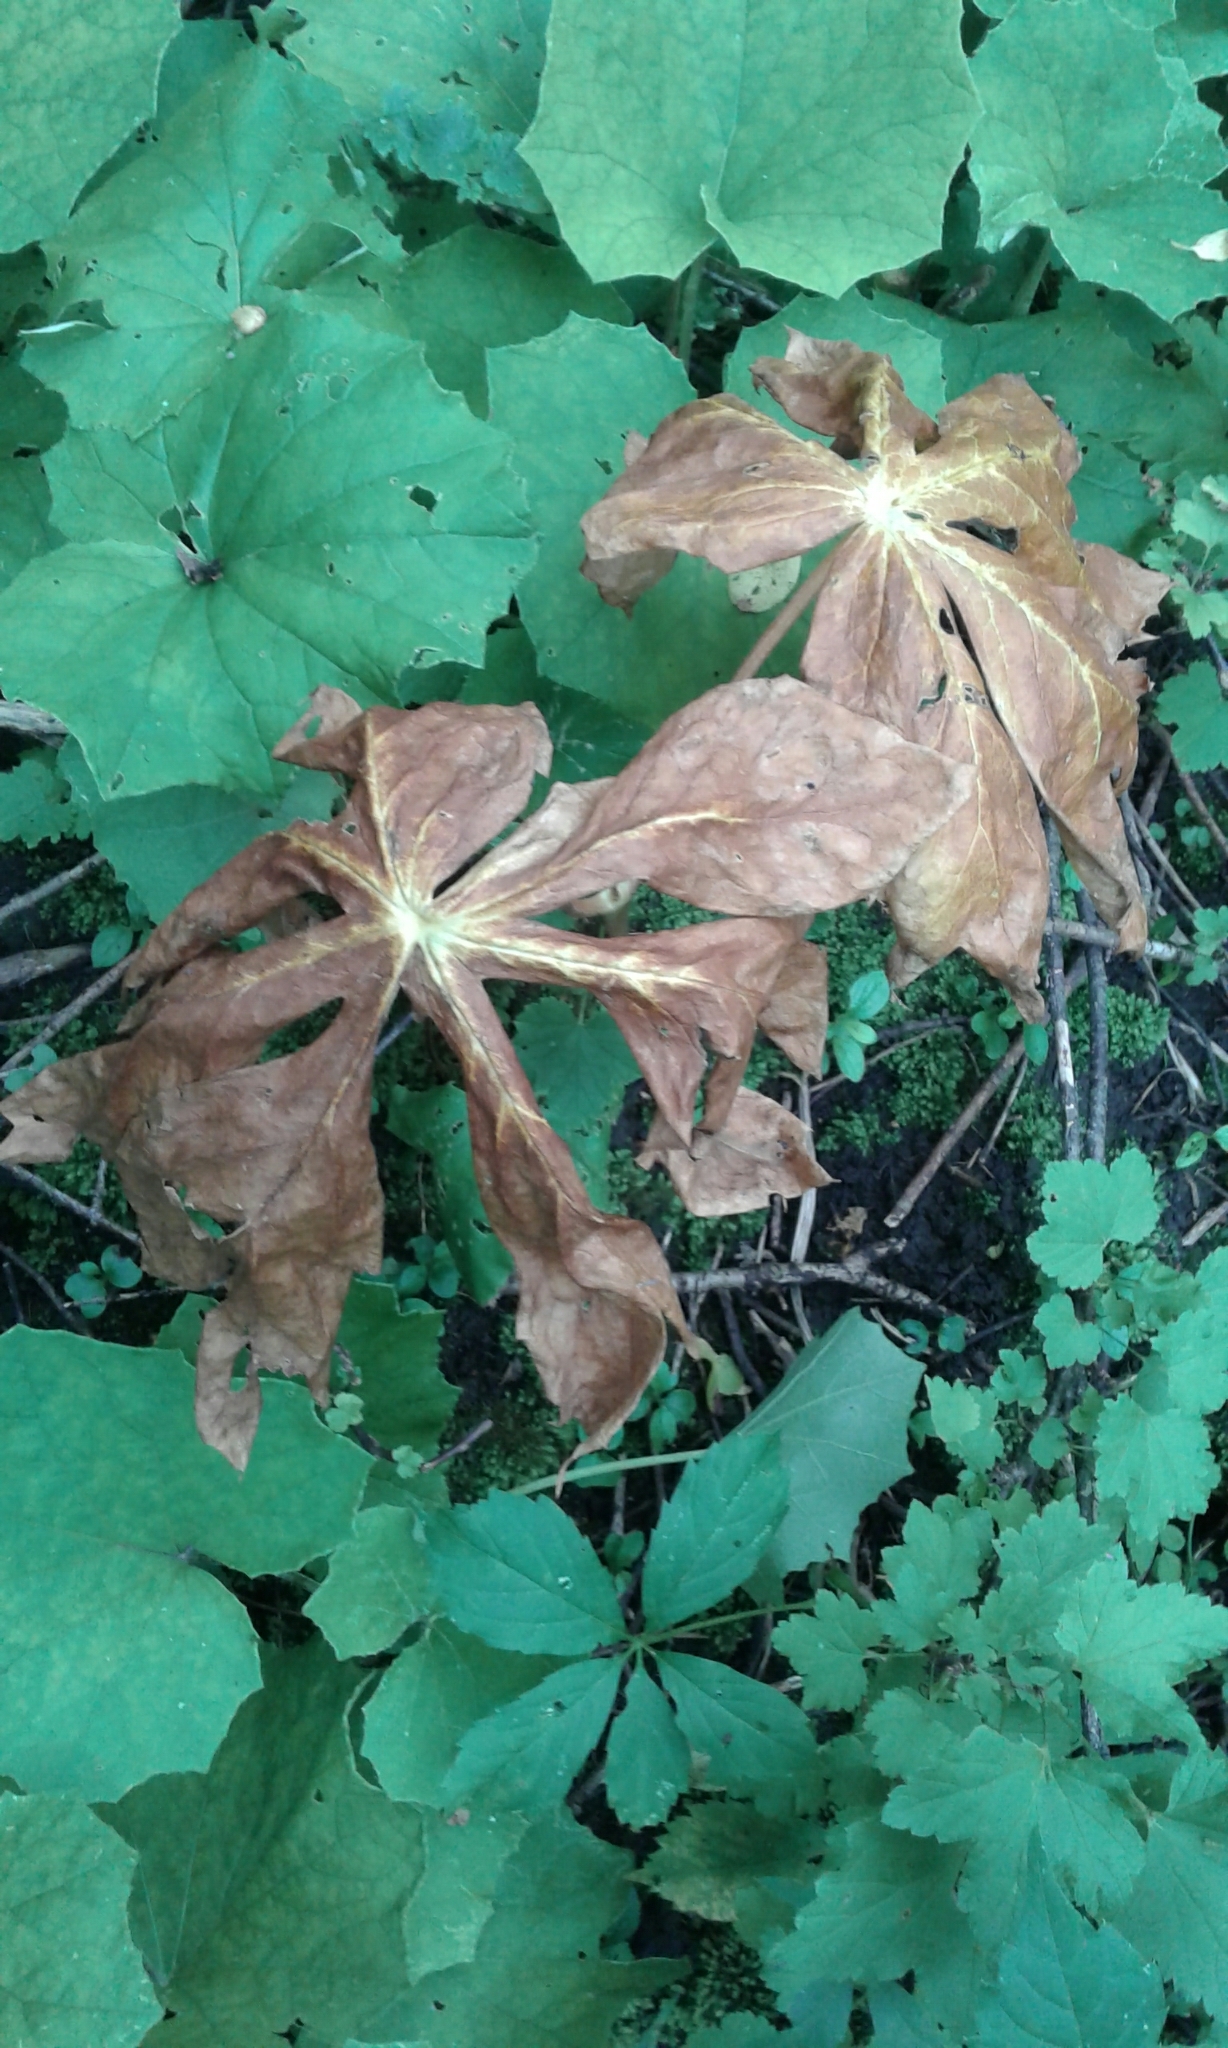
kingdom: Plantae
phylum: Tracheophyta
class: Magnoliopsida
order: Ranunculales
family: Berberidaceae
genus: Podophyllum
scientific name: Podophyllum peltatum
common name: Wild mandrake
